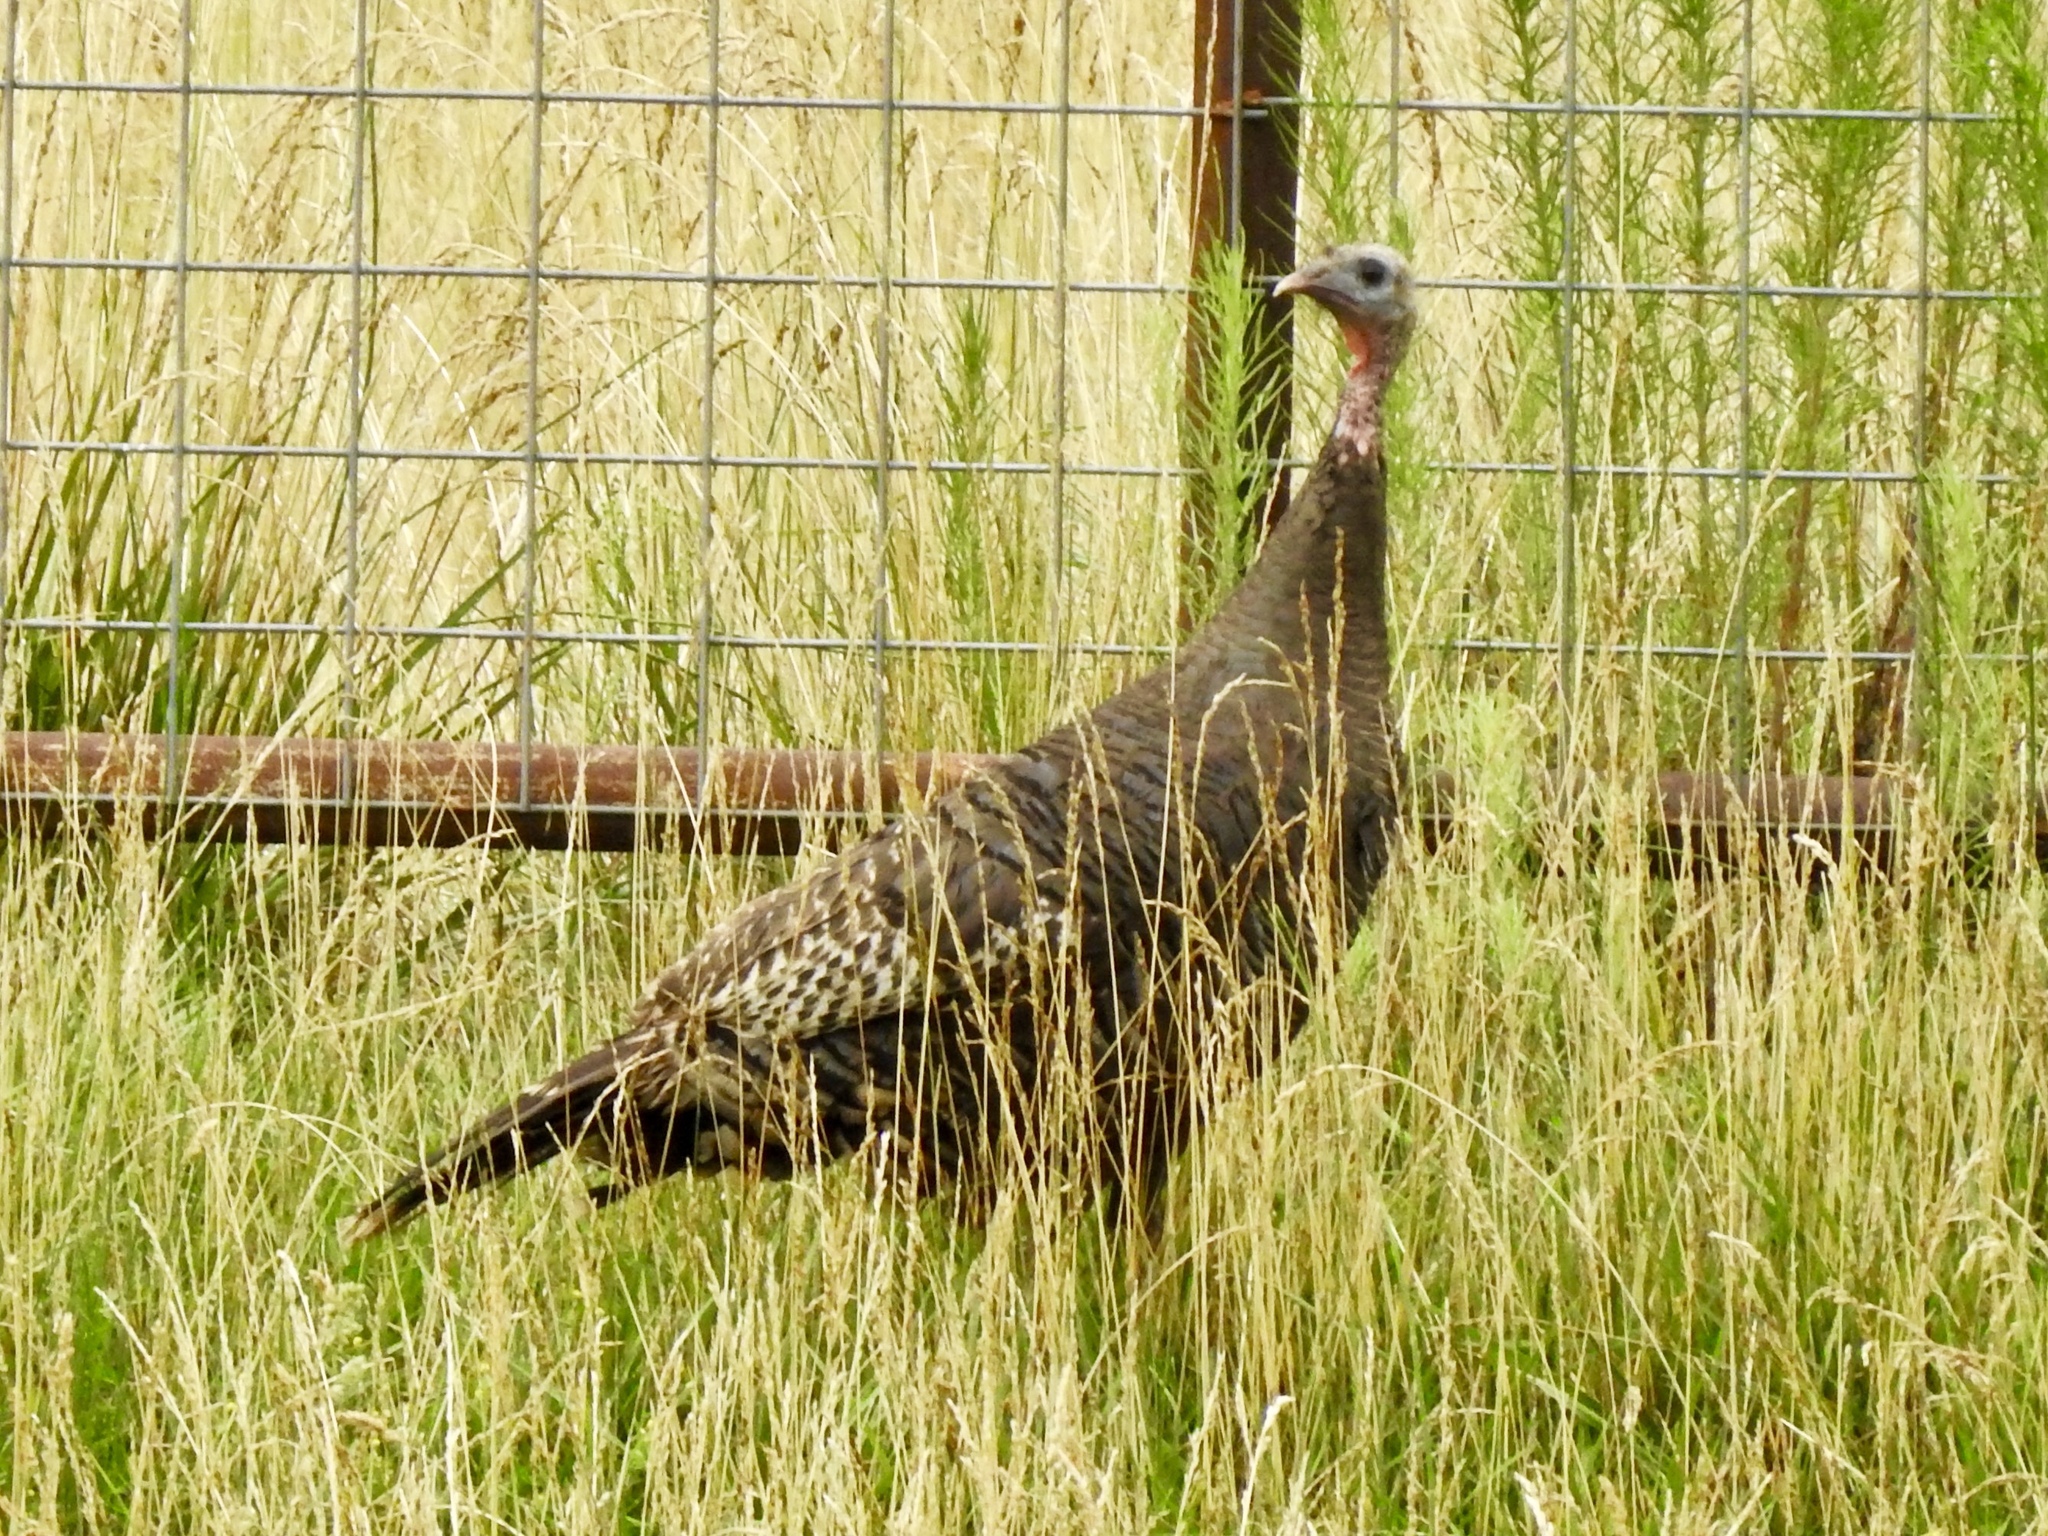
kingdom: Animalia
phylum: Chordata
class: Aves
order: Galliformes
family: Phasianidae
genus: Meleagris
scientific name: Meleagris gallopavo
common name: Wild turkey
